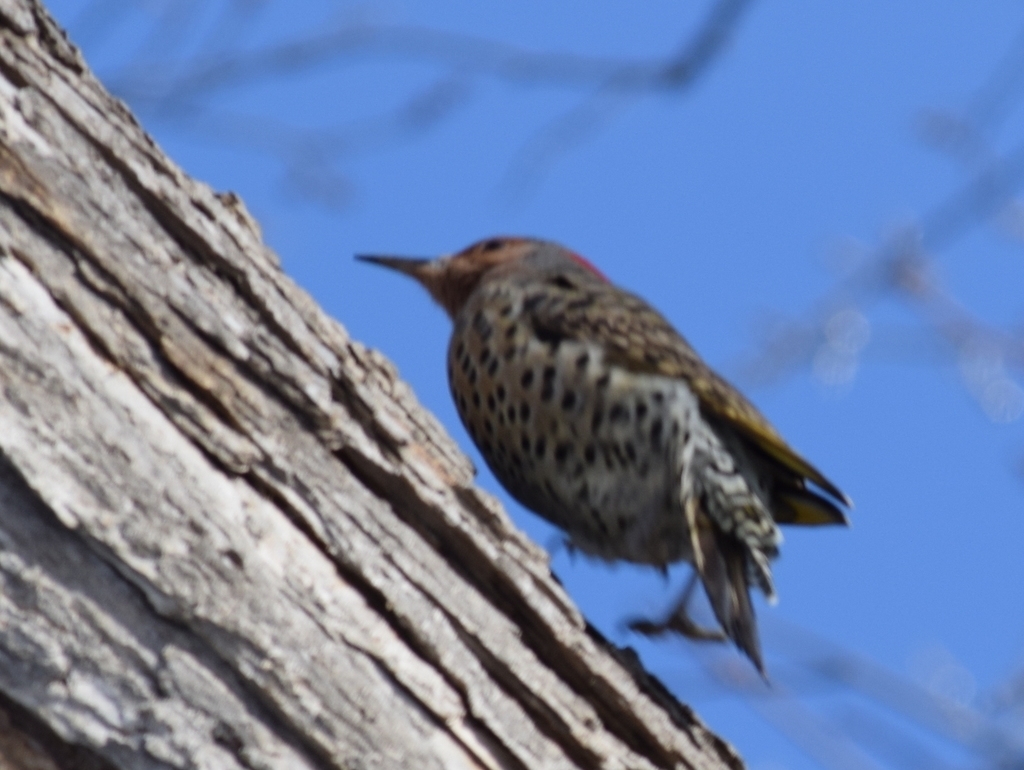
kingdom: Animalia
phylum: Chordata
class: Aves
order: Piciformes
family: Picidae
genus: Colaptes
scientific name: Colaptes auratus
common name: Northern flicker
